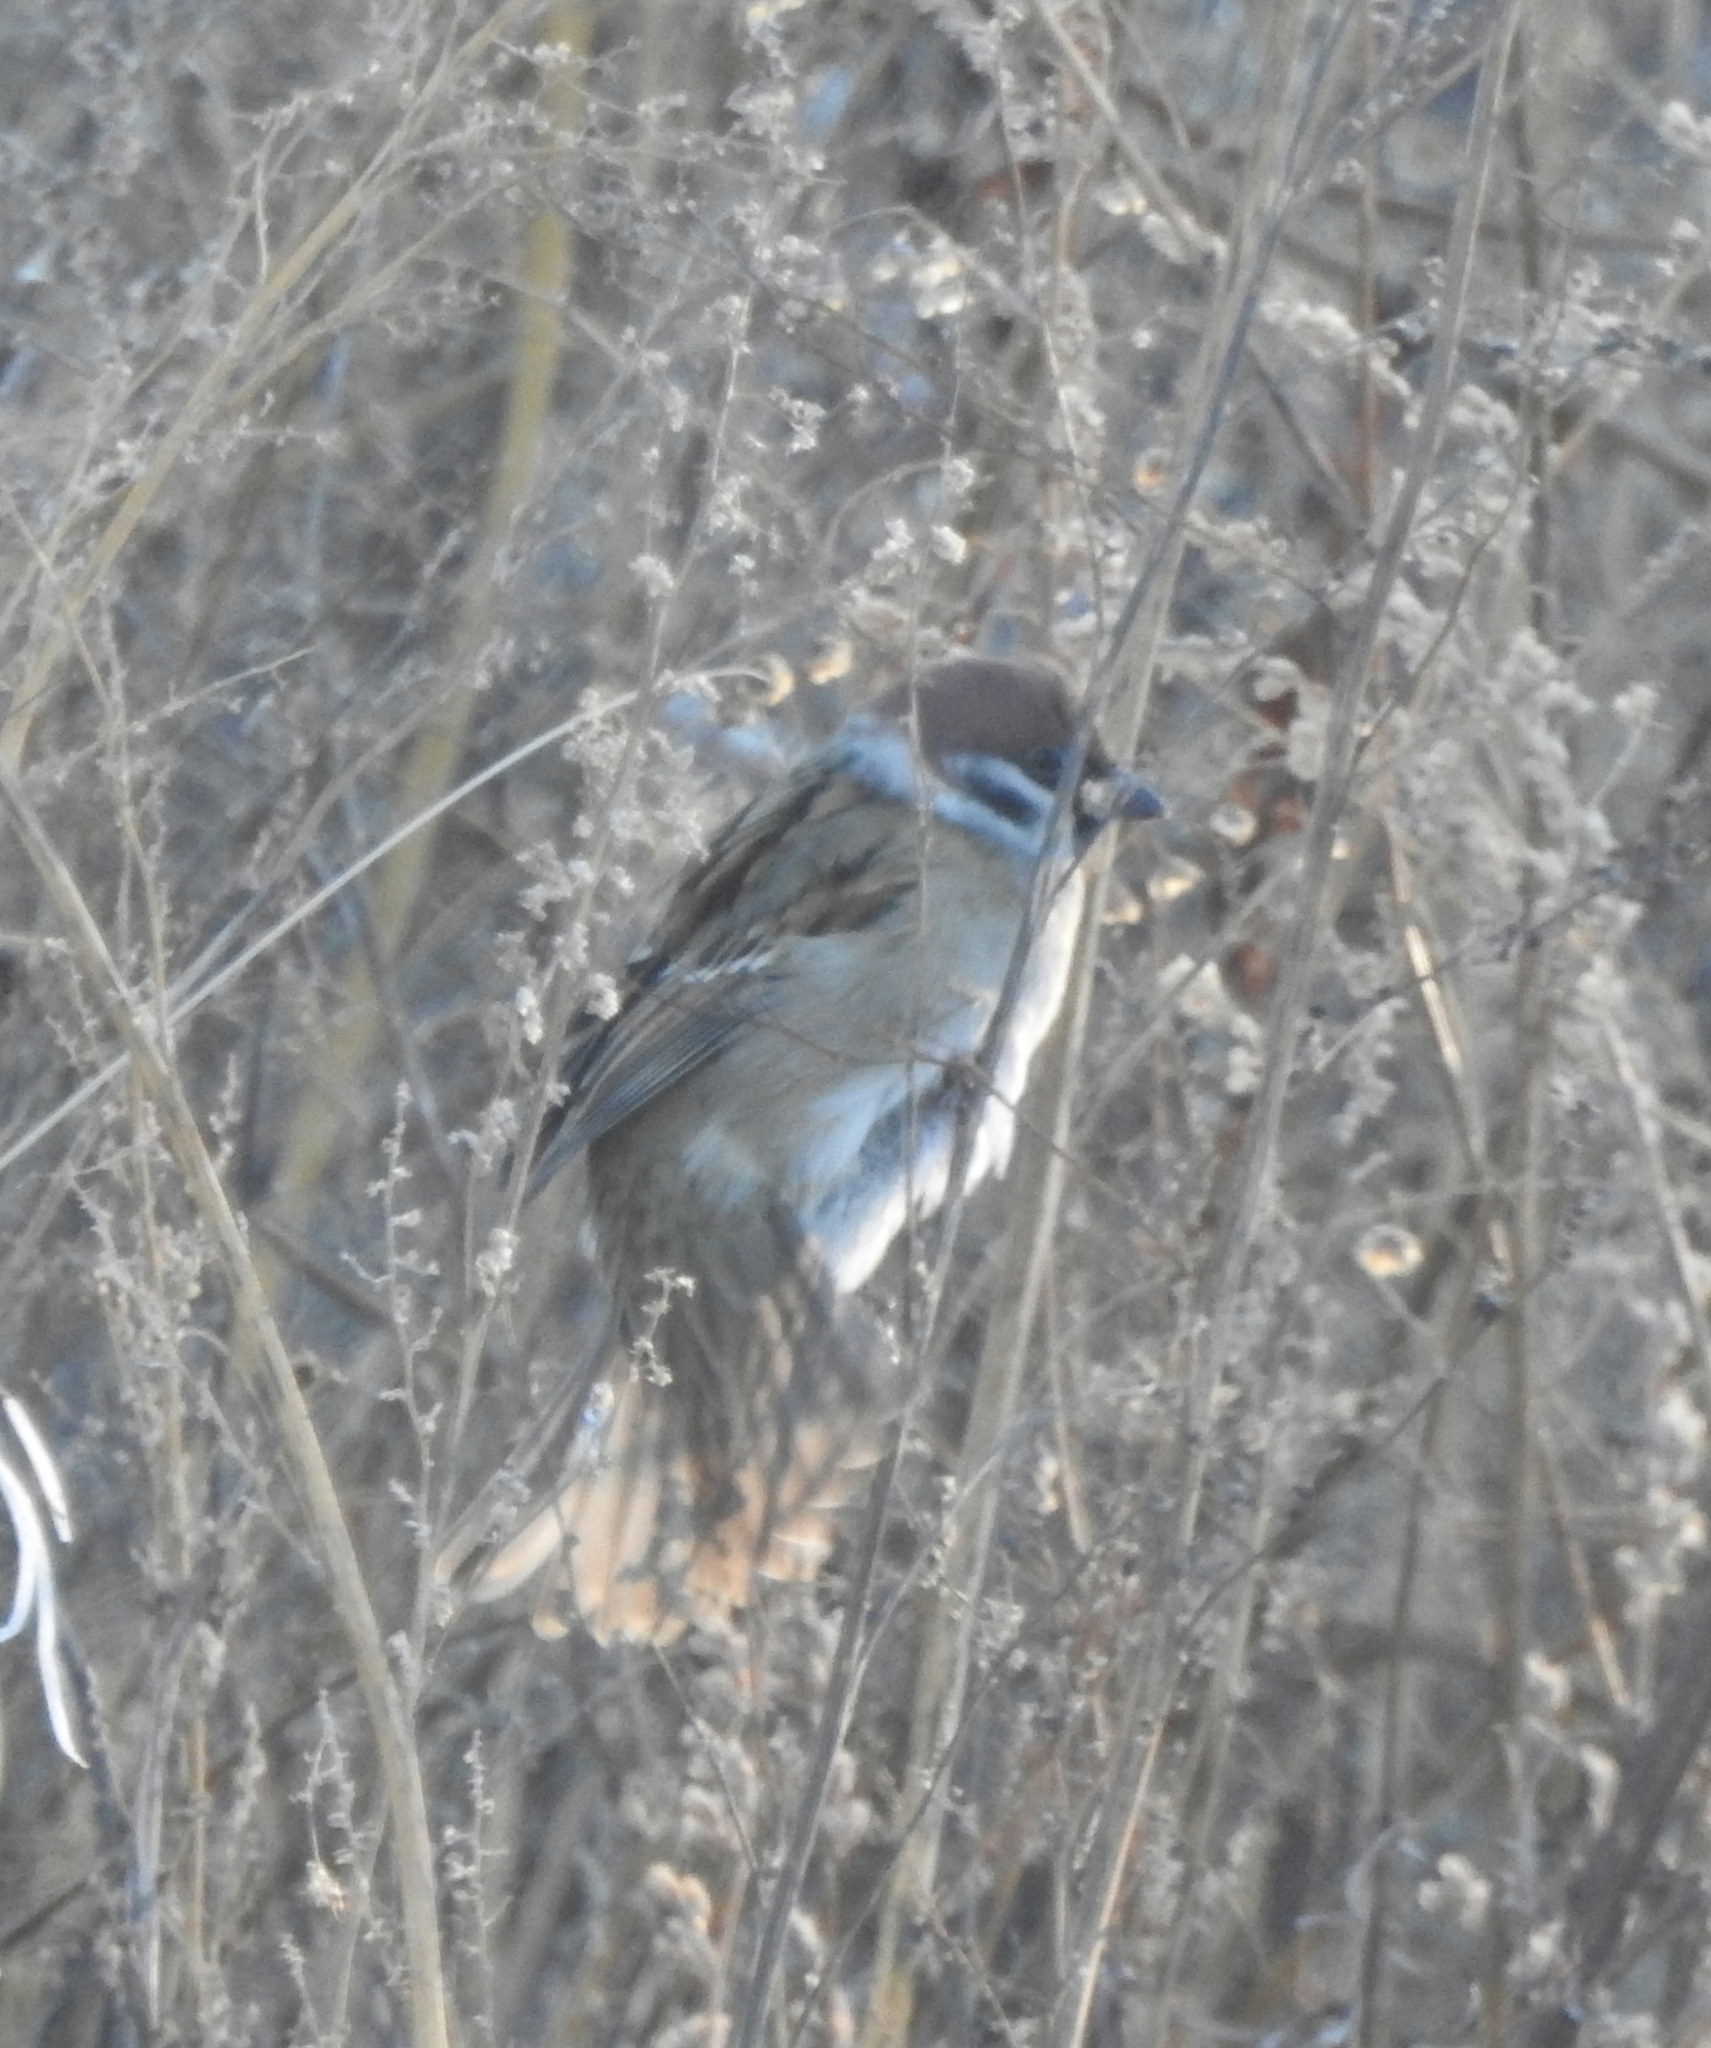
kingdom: Animalia
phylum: Chordata
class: Aves
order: Passeriformes
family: Passeridae
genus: Passer
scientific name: Passer montanus
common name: Eurasian tree sparrow
